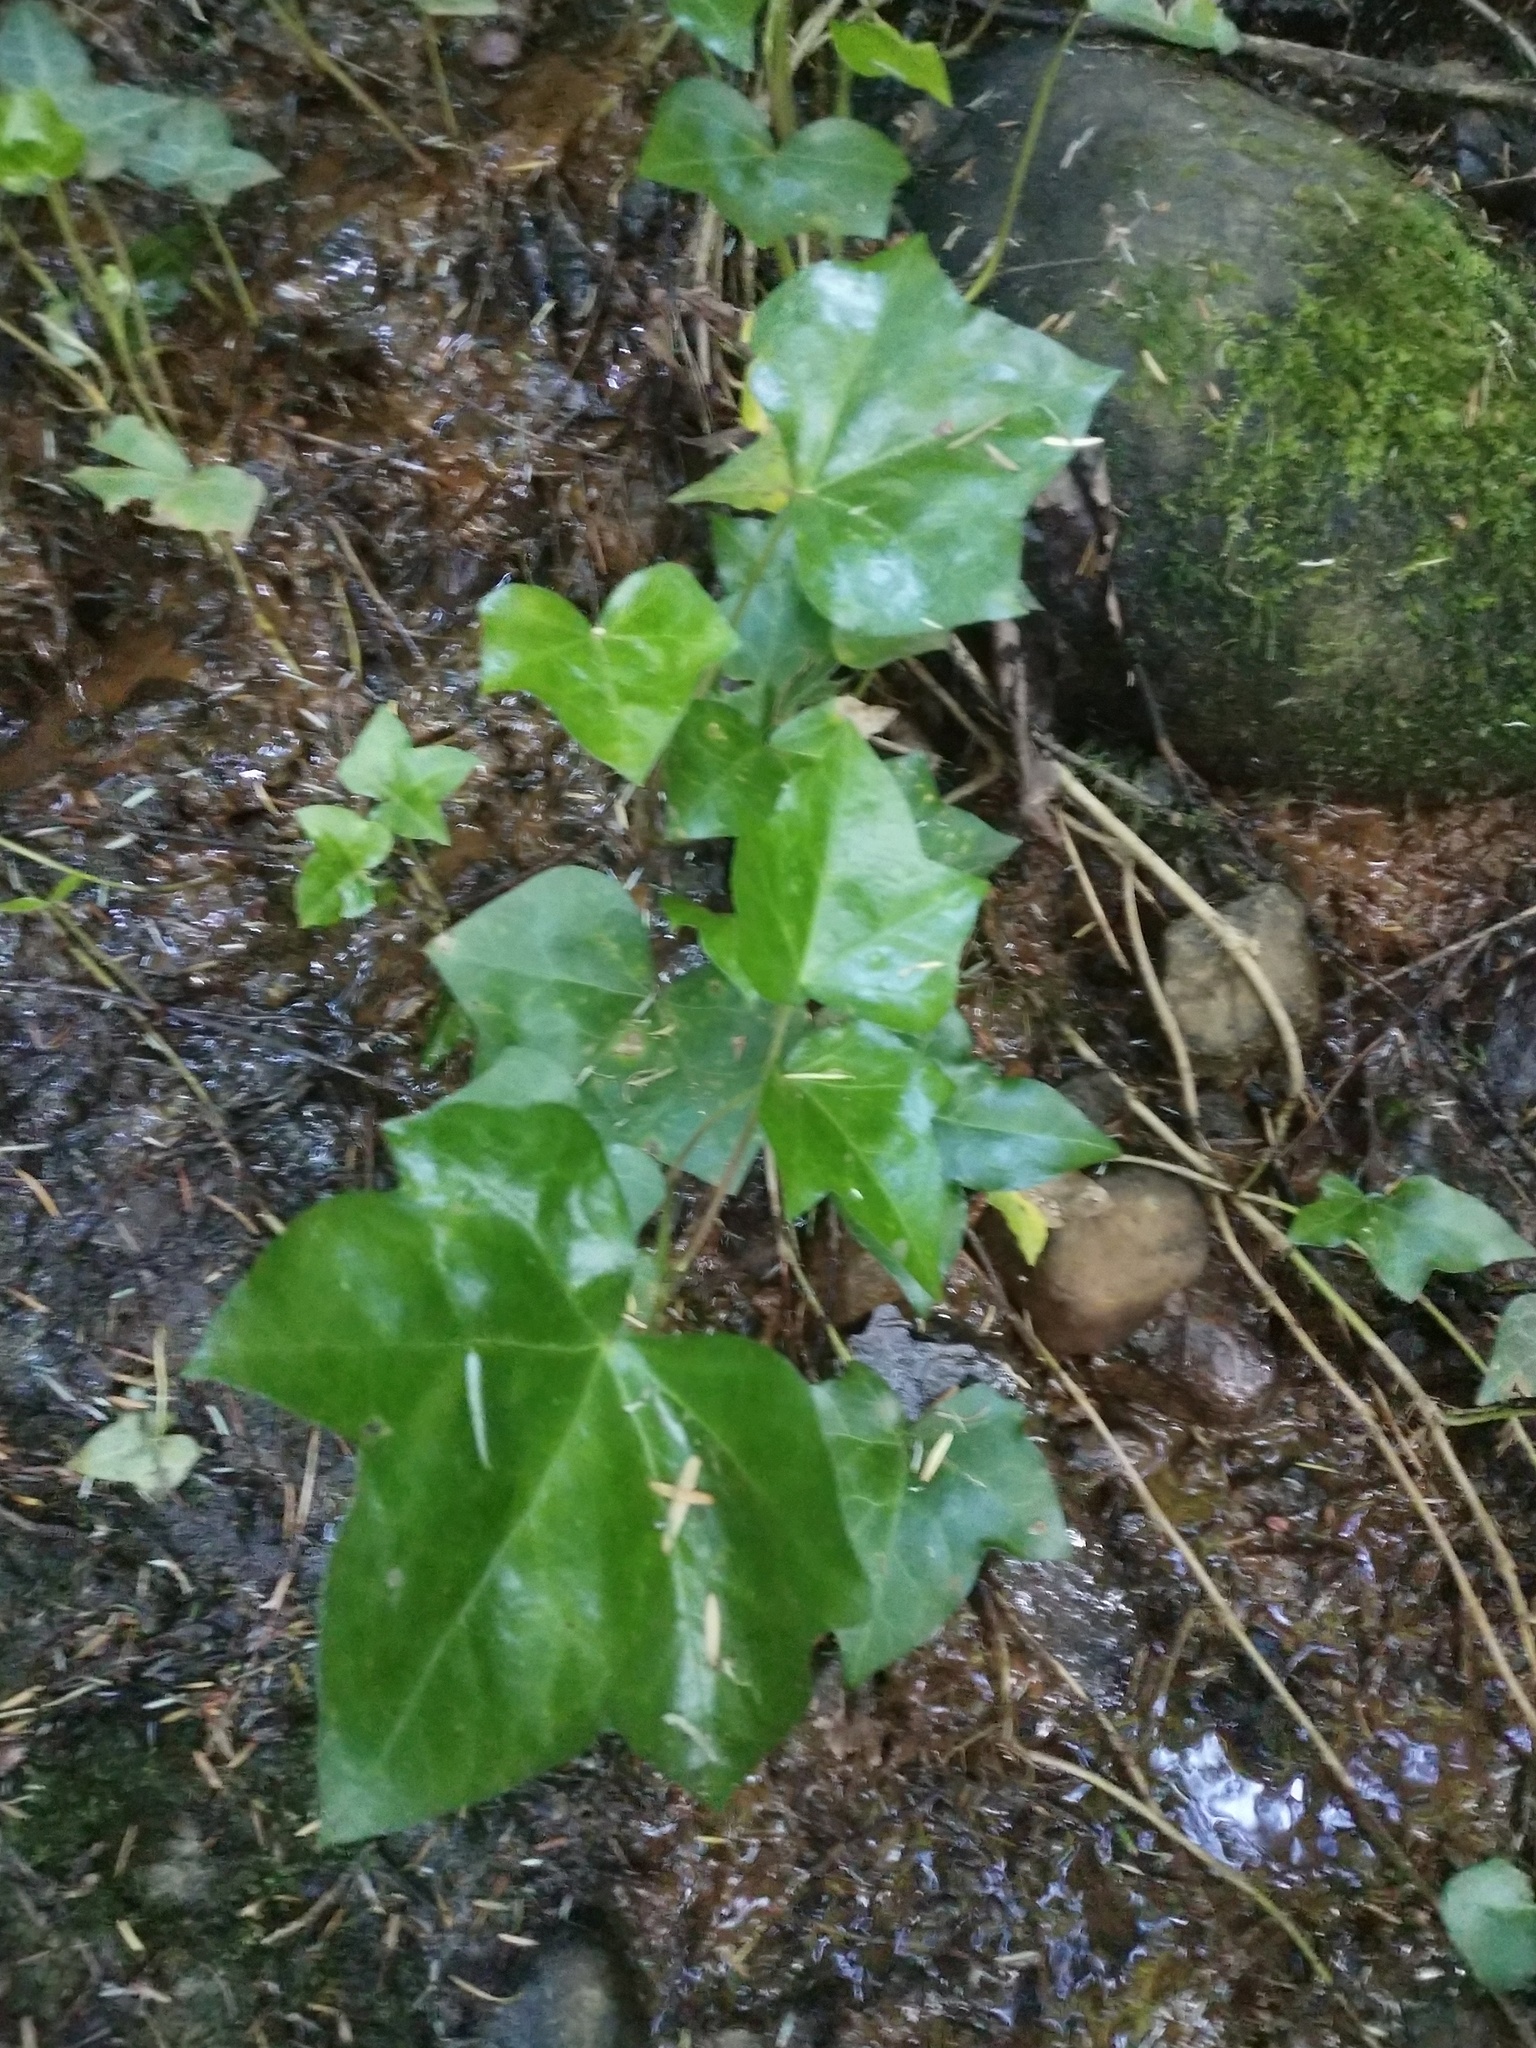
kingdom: Plantae
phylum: Tracheophyta
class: Magnoliopsida
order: Apiales
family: Araliaceae
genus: Hedera
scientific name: Hedera helix
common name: Ivy
